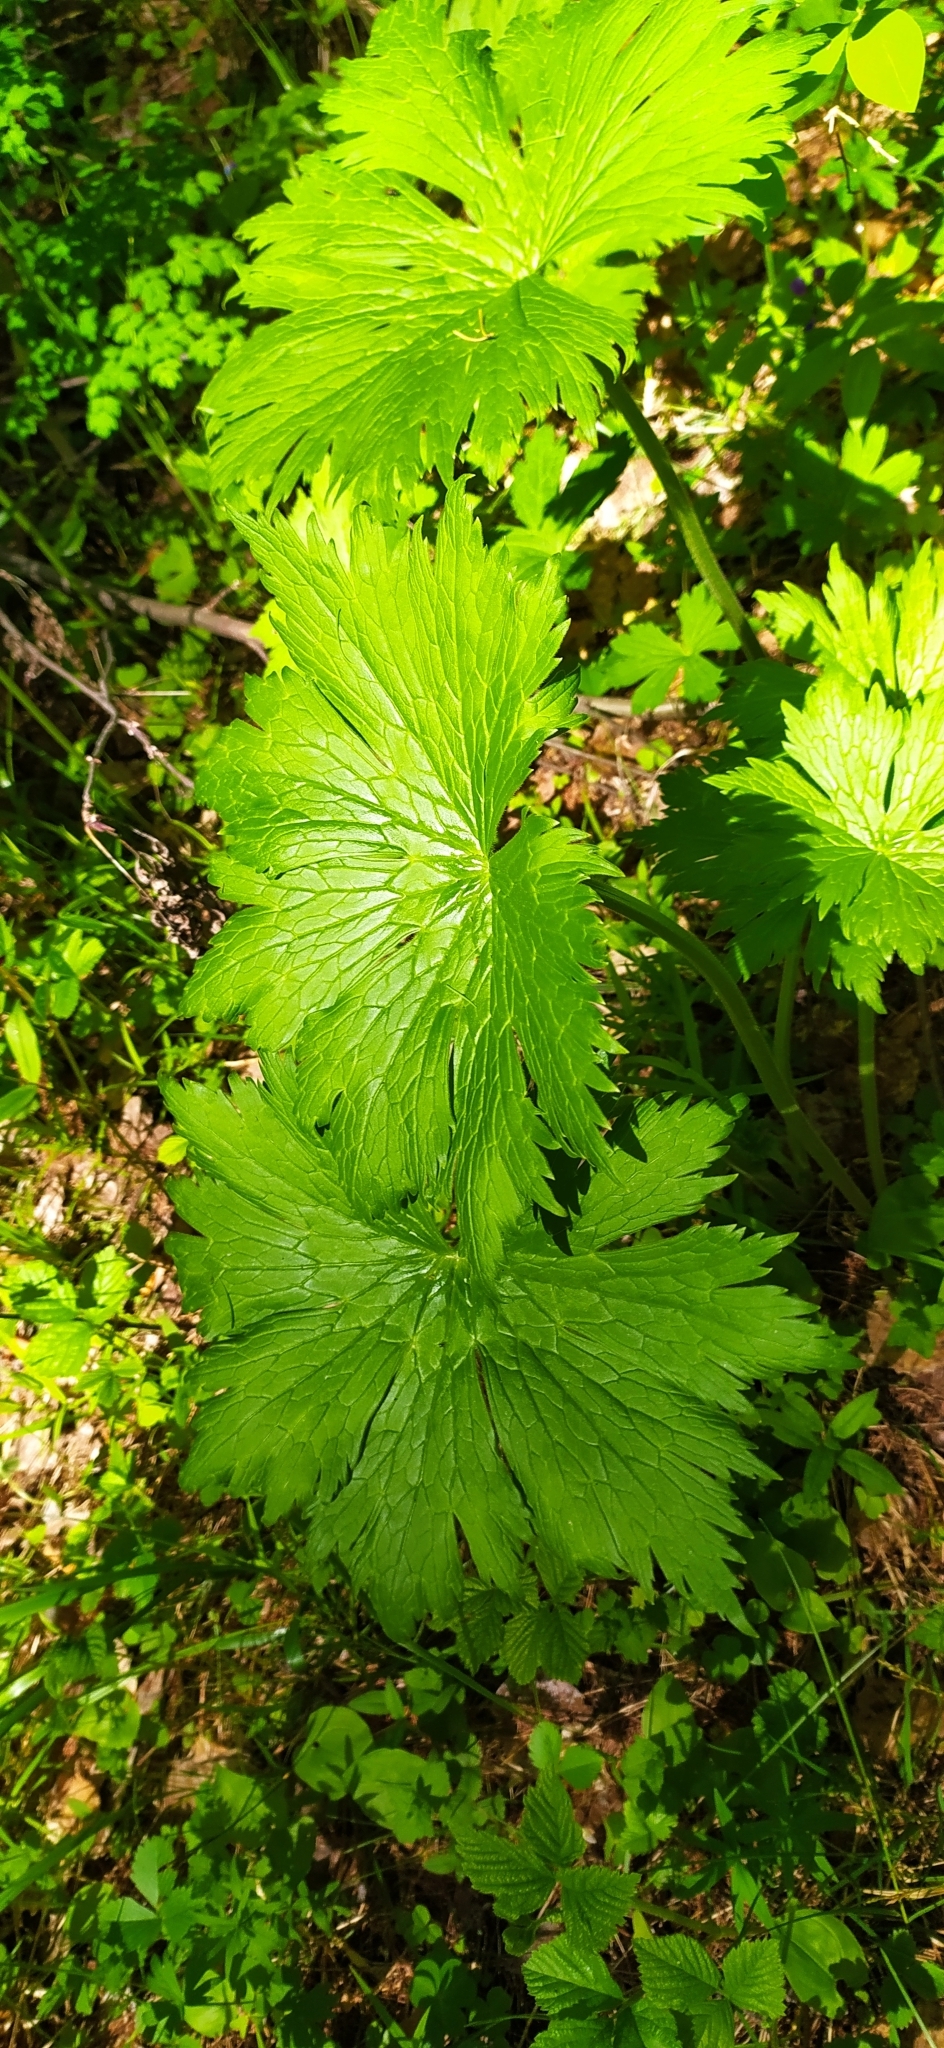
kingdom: Plantae
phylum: Tracheophyta
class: Magnoliopsida
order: Ranunculales
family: Ranunculaceae
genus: Aconitum
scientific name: Aconitum septentrionale
